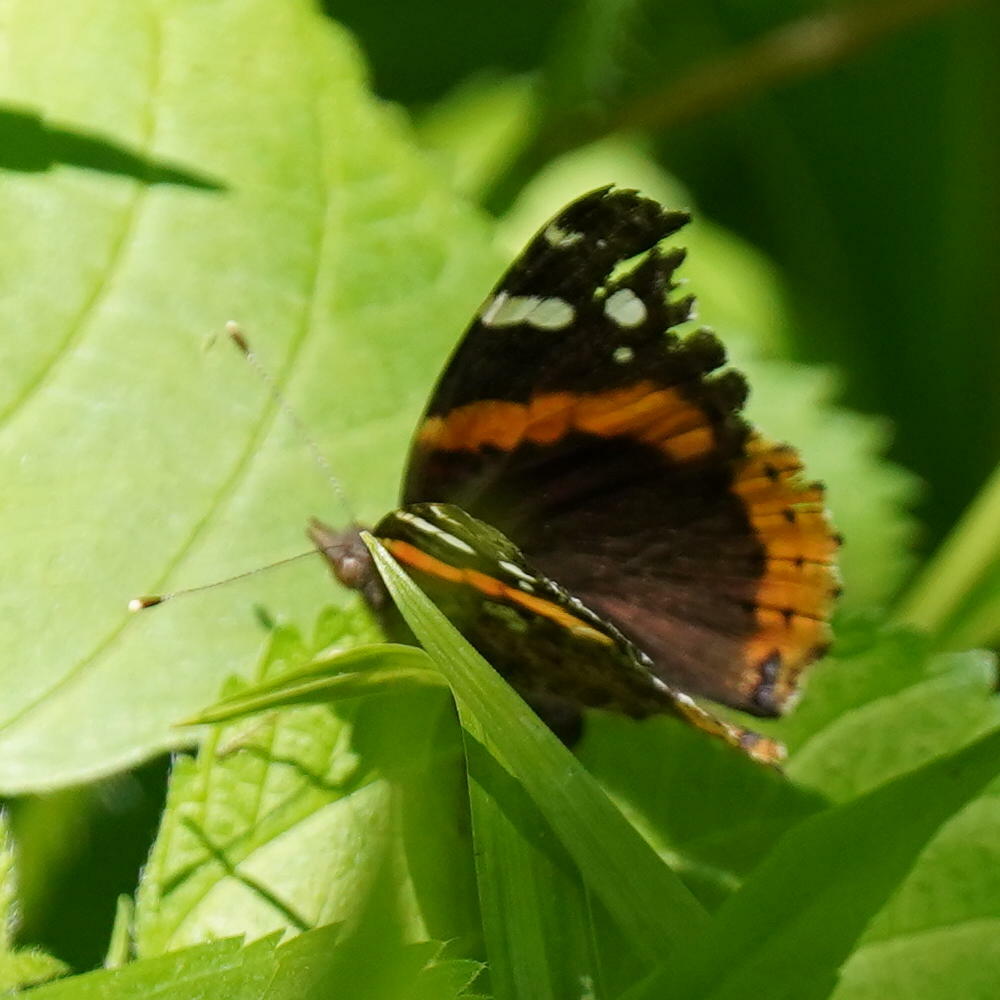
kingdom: Animalia
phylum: Arthropoda
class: Insecta
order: Lepidoptera
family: Nymphalidae
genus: Vanessa
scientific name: Vanessa atalanta
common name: Red admiral
